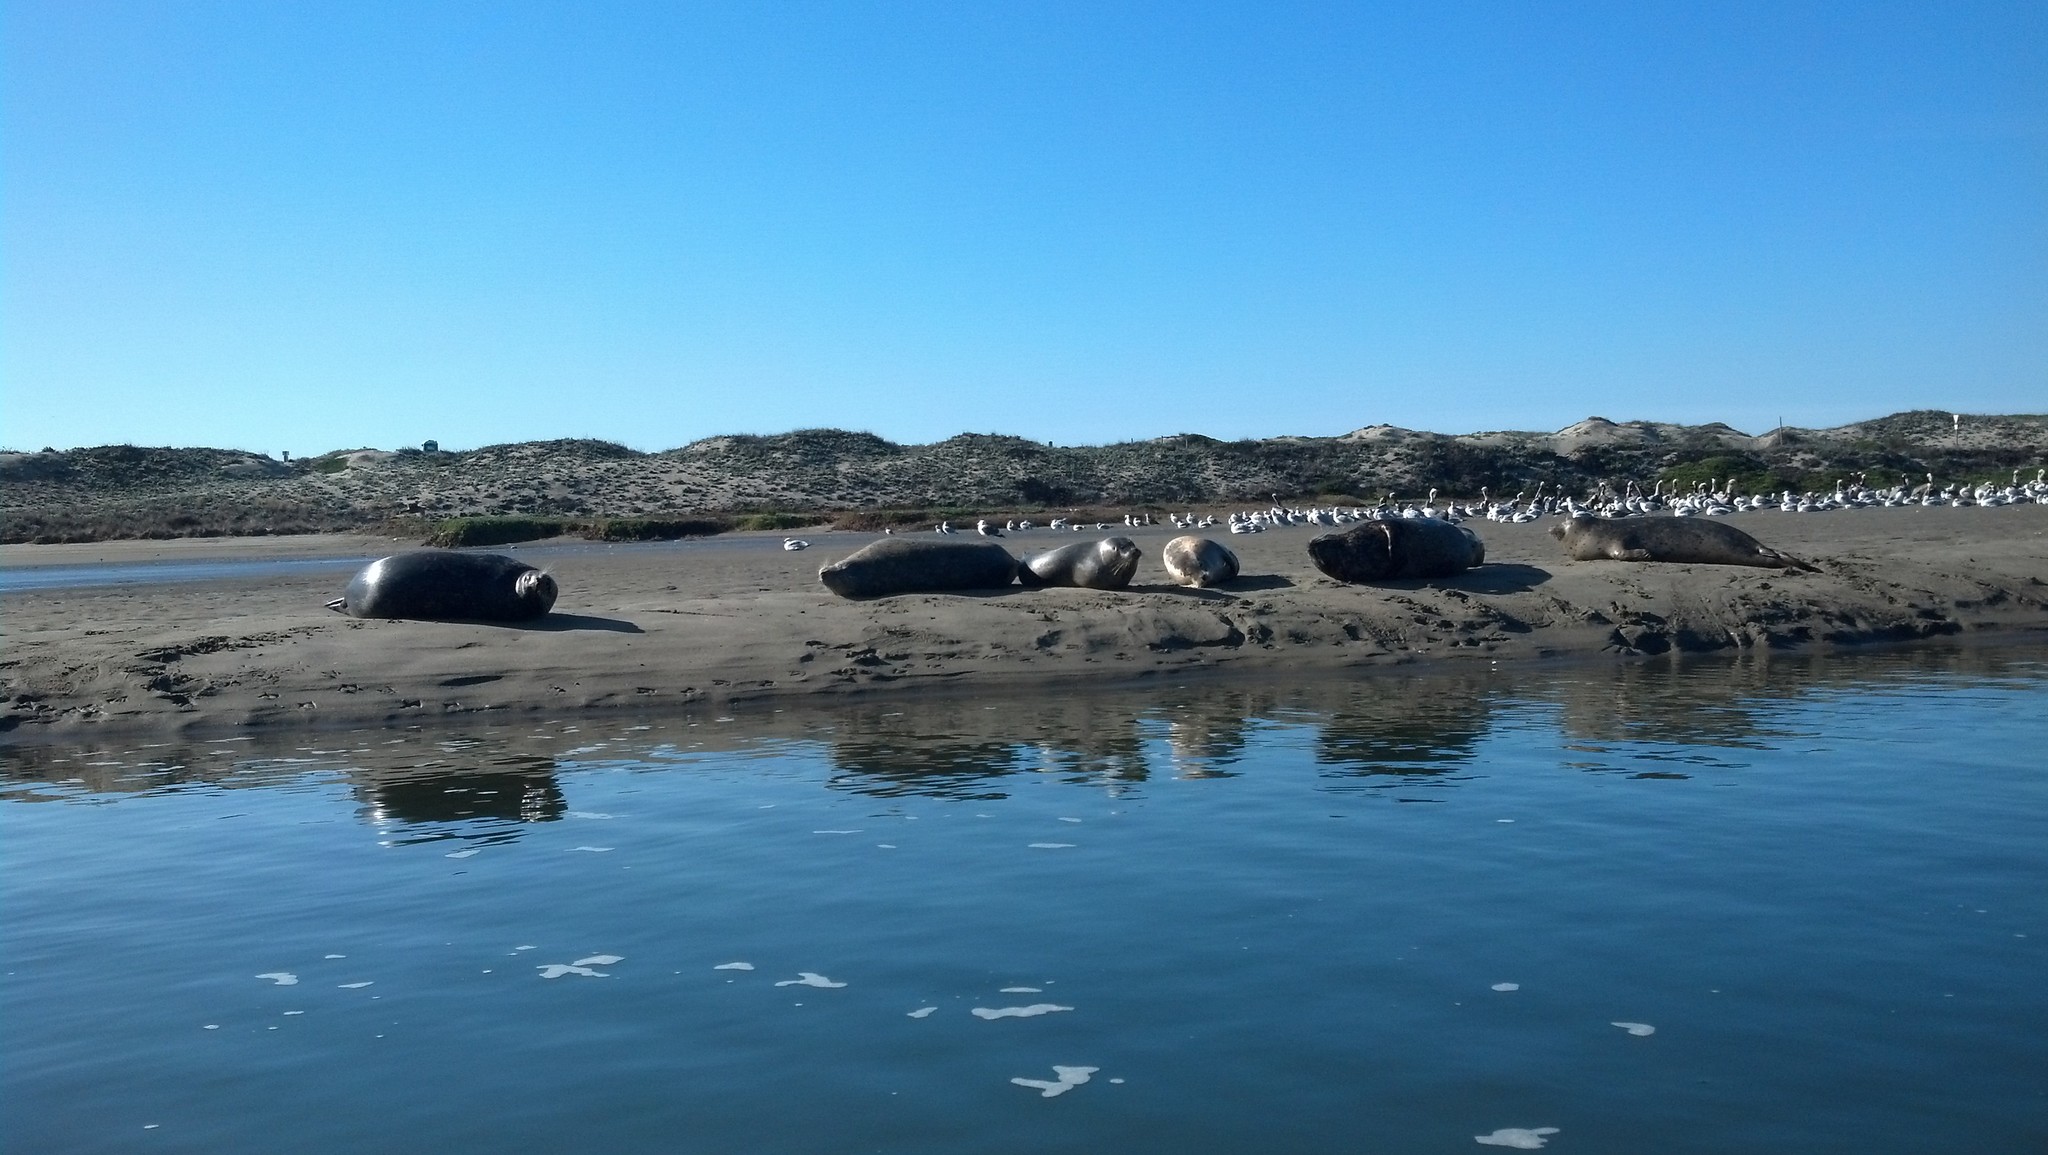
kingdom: Animalia
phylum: Chordata
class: Mammalia
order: Carnivora
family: Phocidae
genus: Phoca
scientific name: Phoca vitulina
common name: Harbor seal
